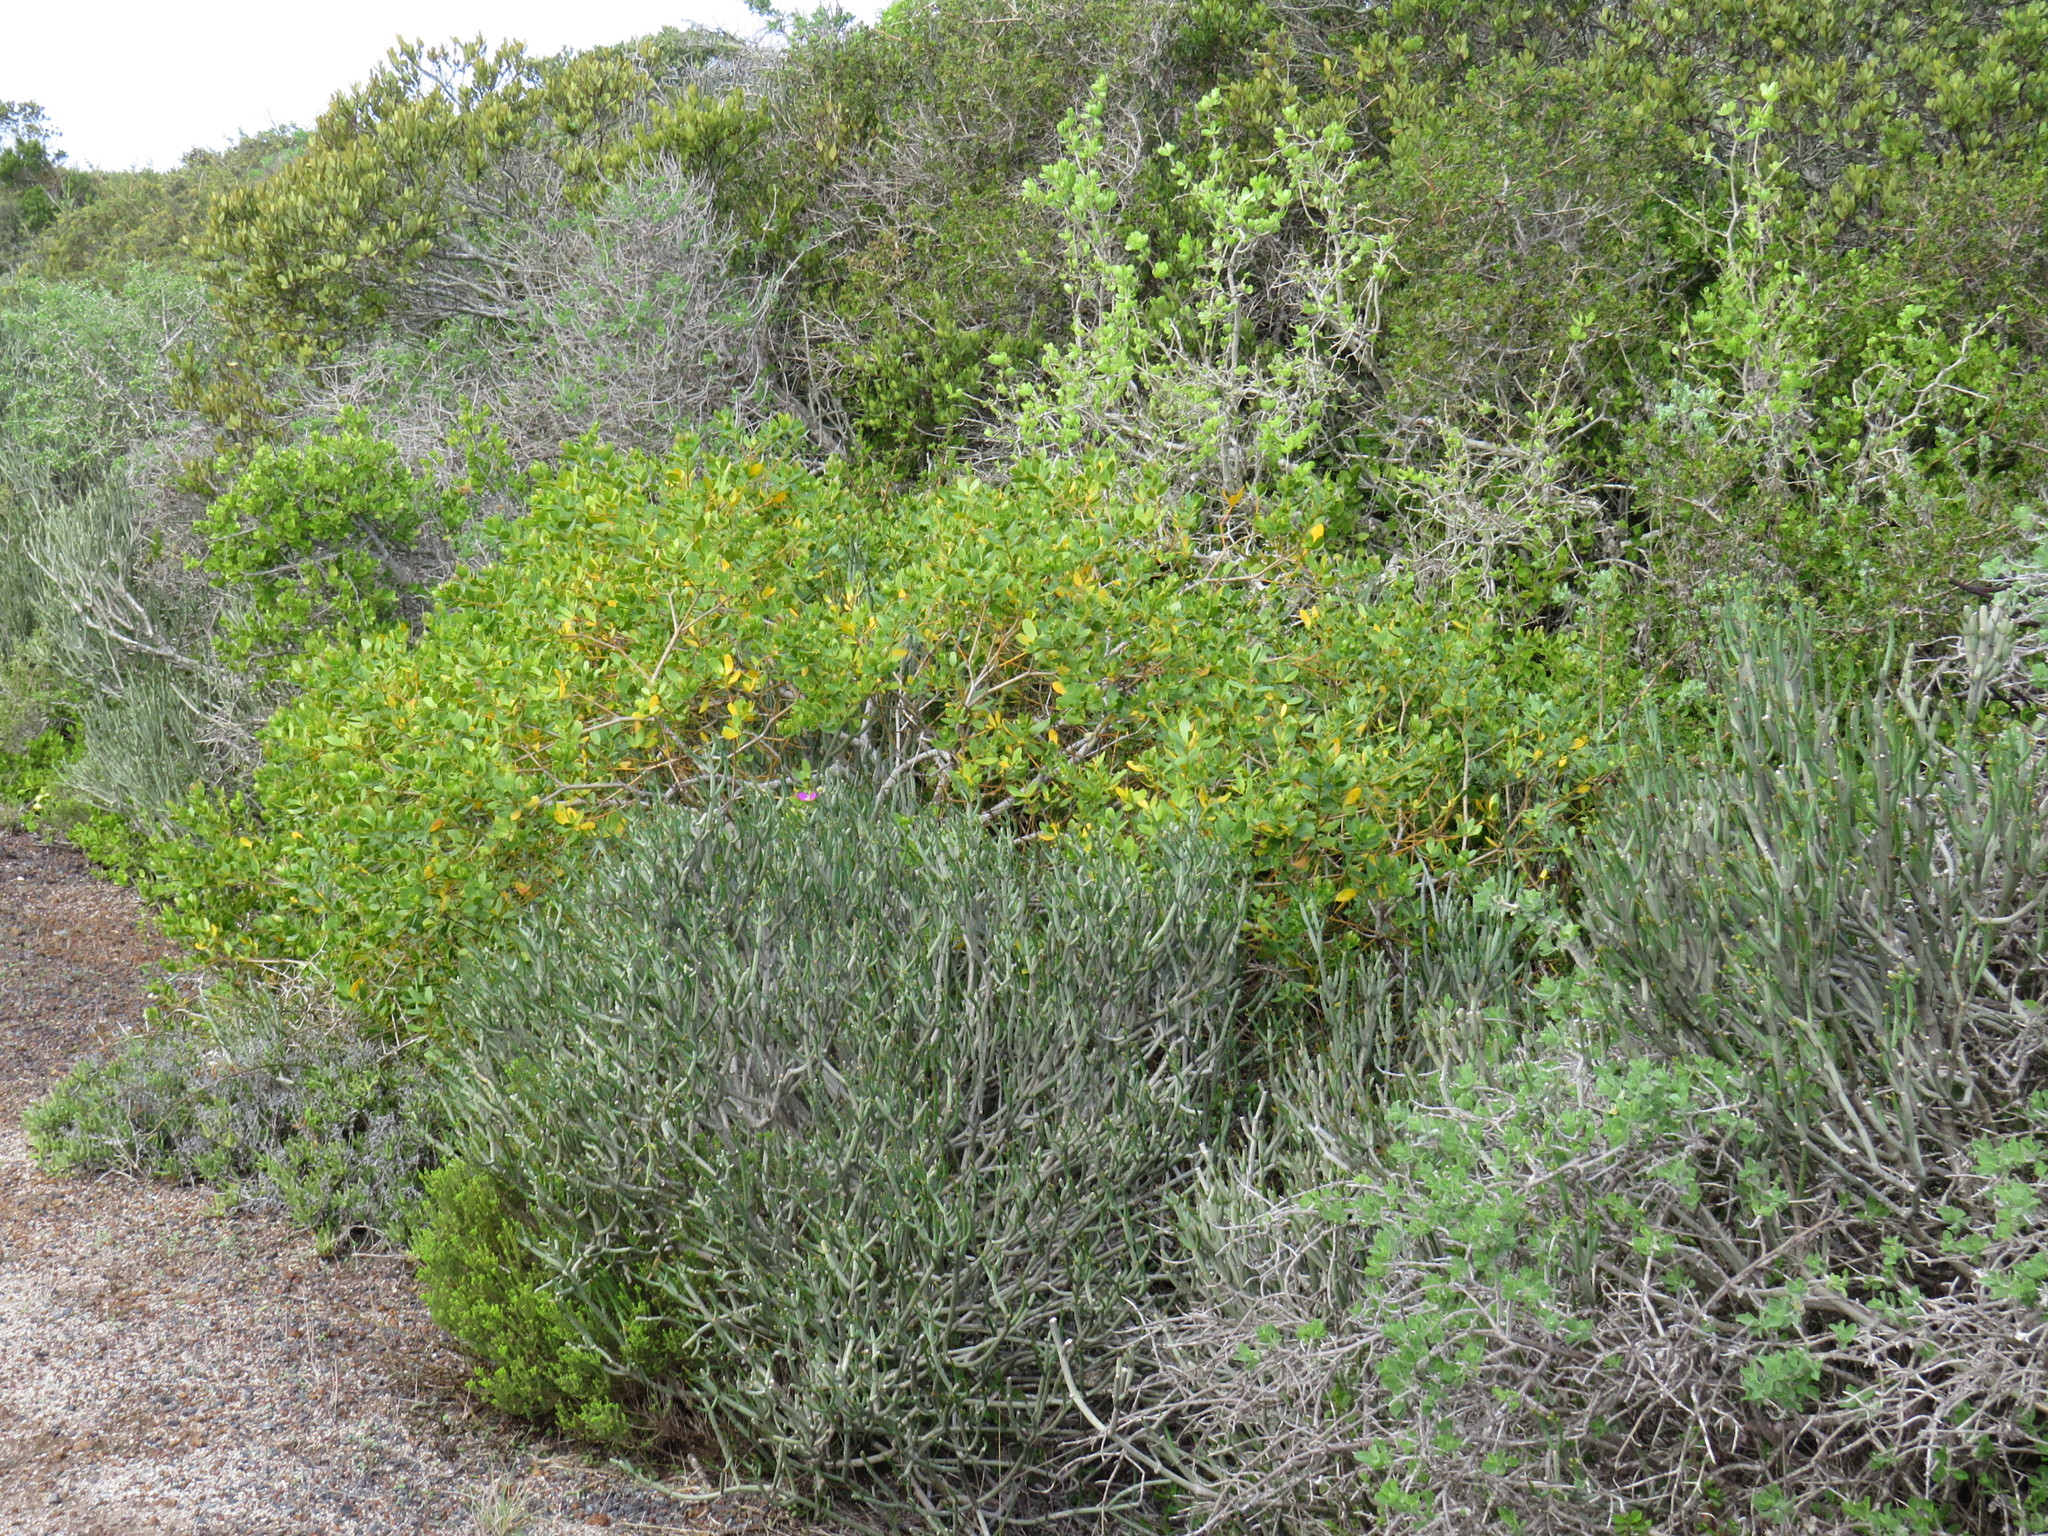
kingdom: Plantae
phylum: Tracheophyta
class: Magnoliopsida
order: Malpighiales
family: Euphorbiaceae
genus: Euphorbia
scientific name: Euphorbia burmanni
